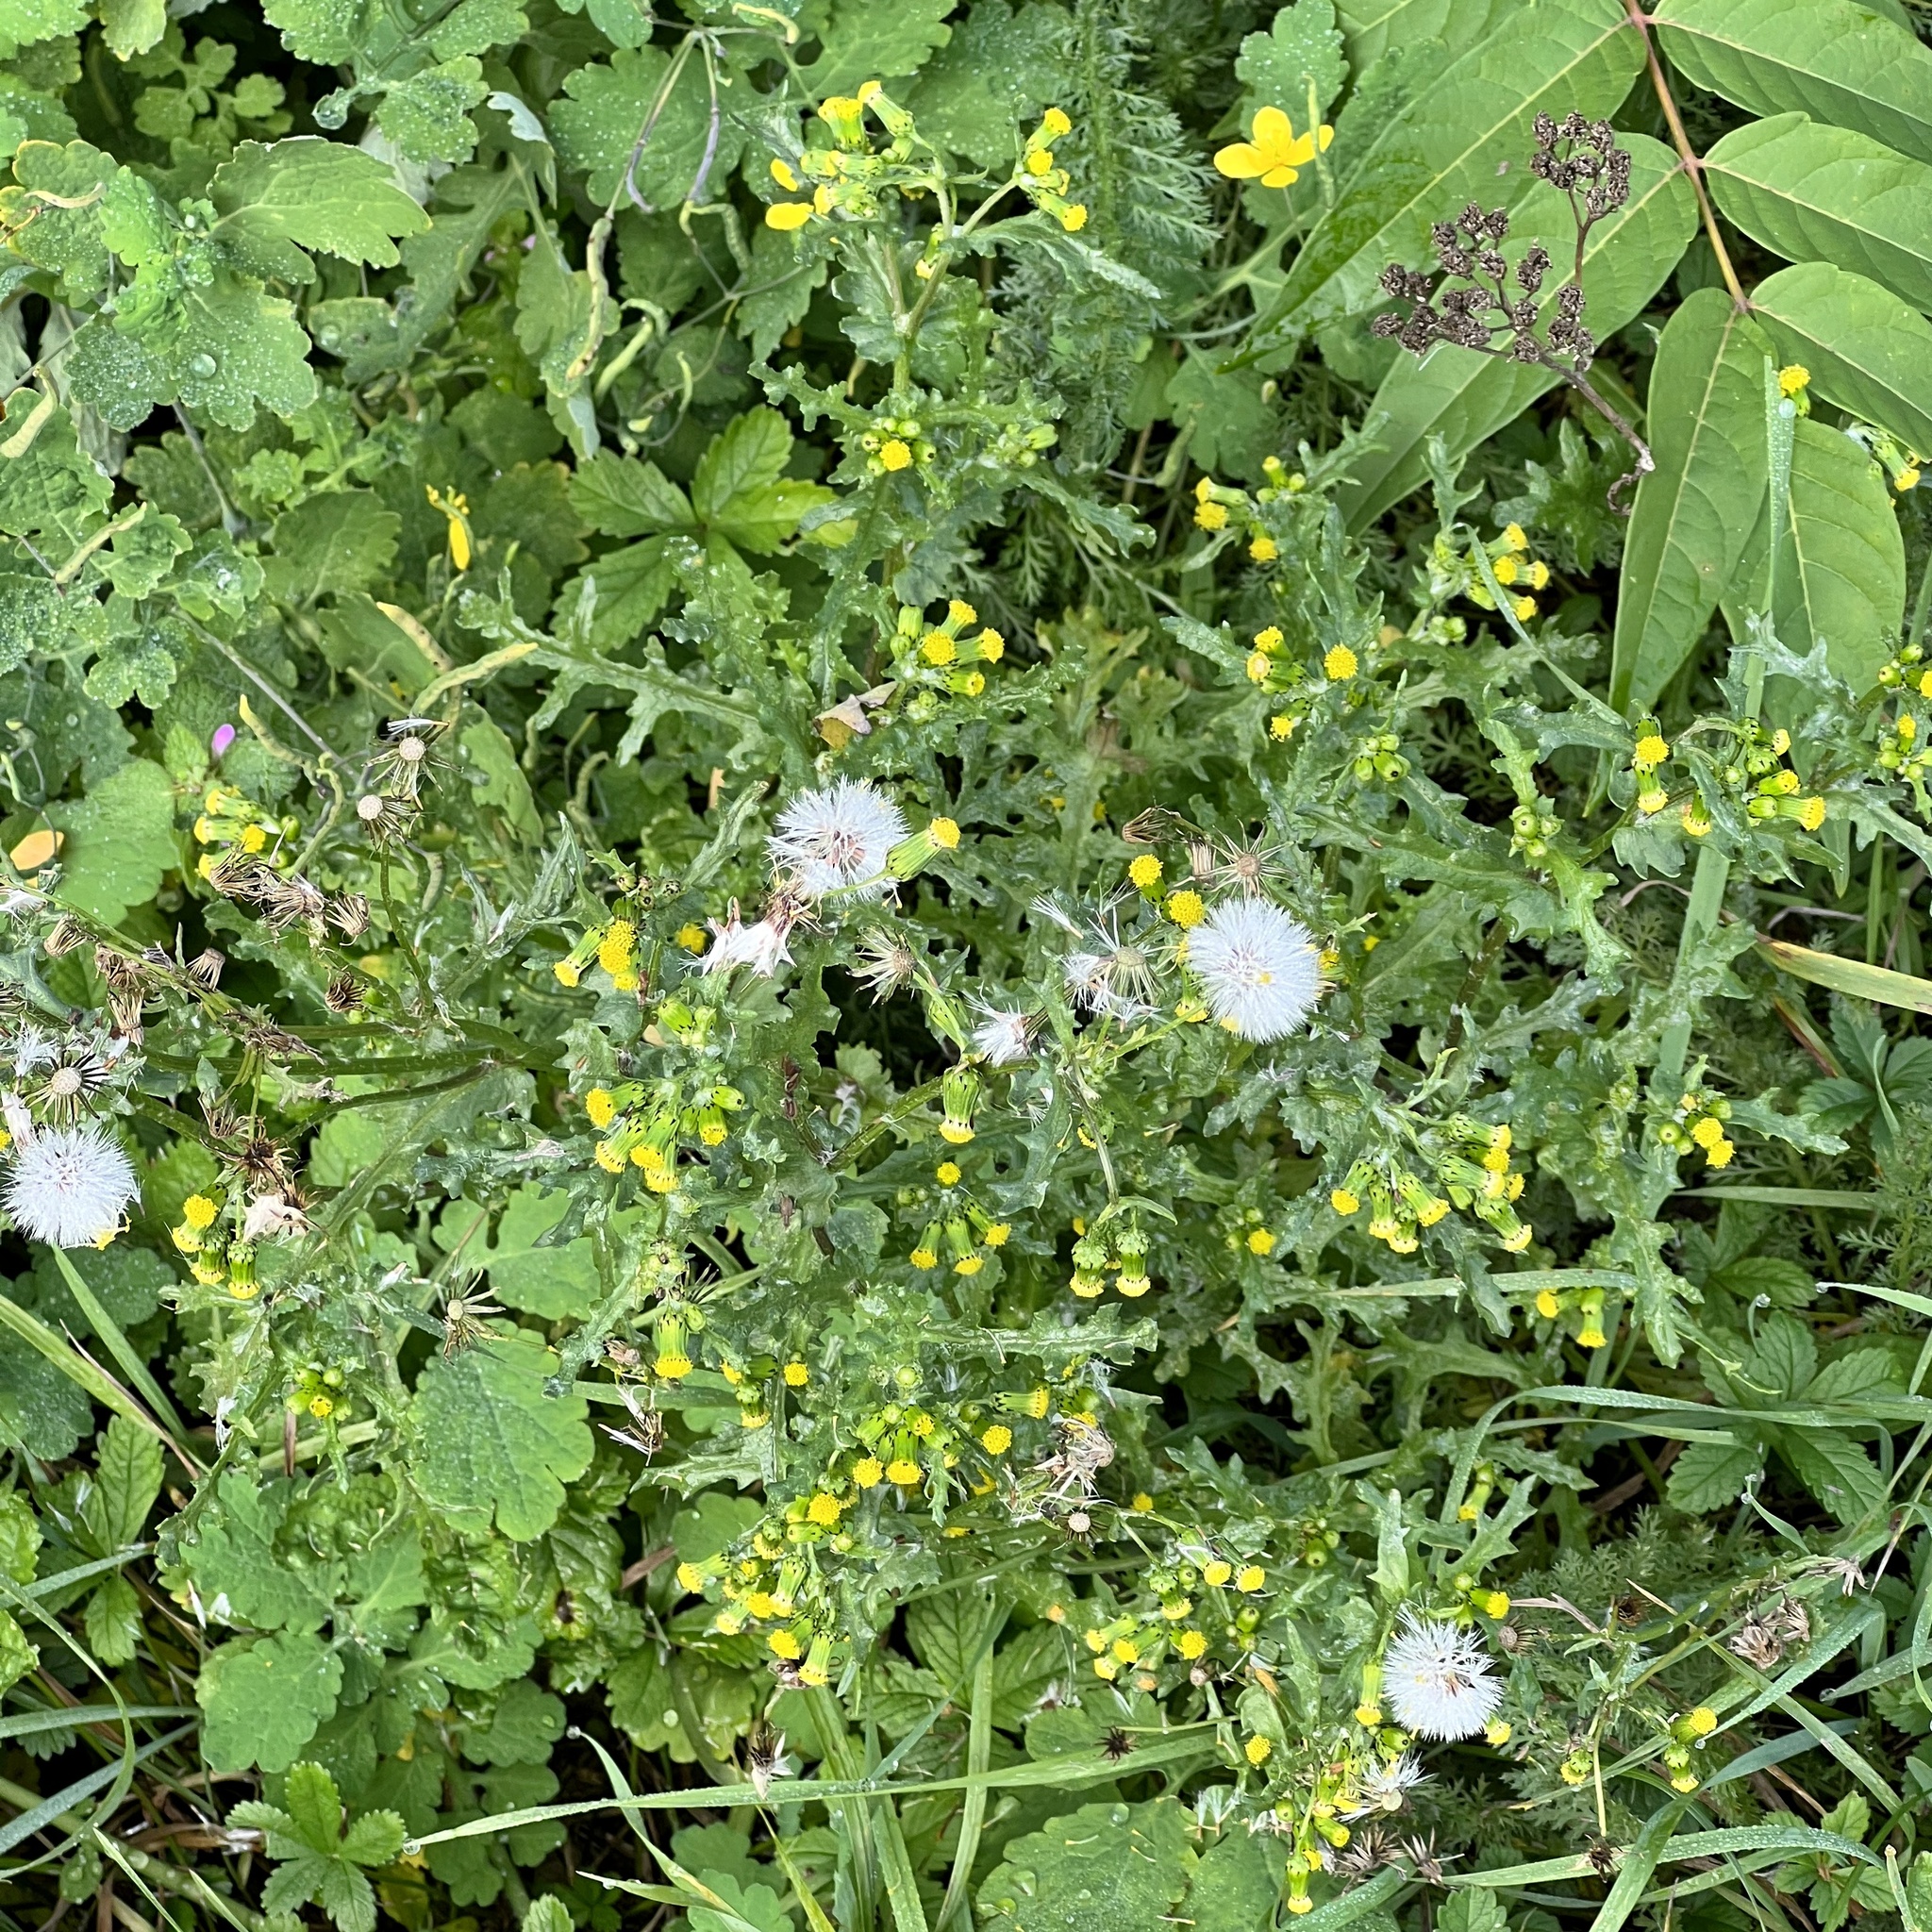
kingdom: Plantae
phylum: Tracheophyta
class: Magnoliopsida
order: Asterales
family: Asteraceae
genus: Senecio
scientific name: Senecio vulgaris
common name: Old-man-in-the-spring
